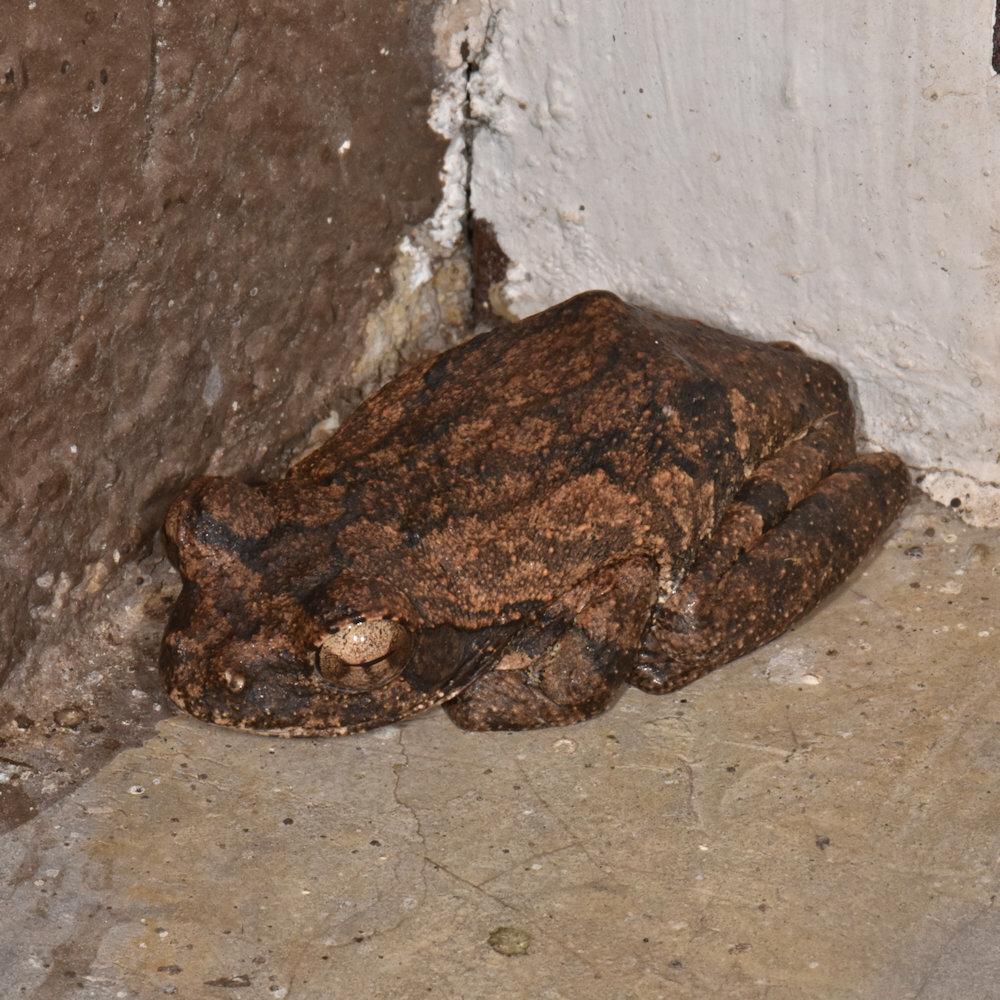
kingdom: Animalia
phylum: Chordata
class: Amphibia
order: Anura
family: Rhacophoridae
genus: Chiromantis
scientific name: Chiromantis xerampelina
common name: African gray treefrog
